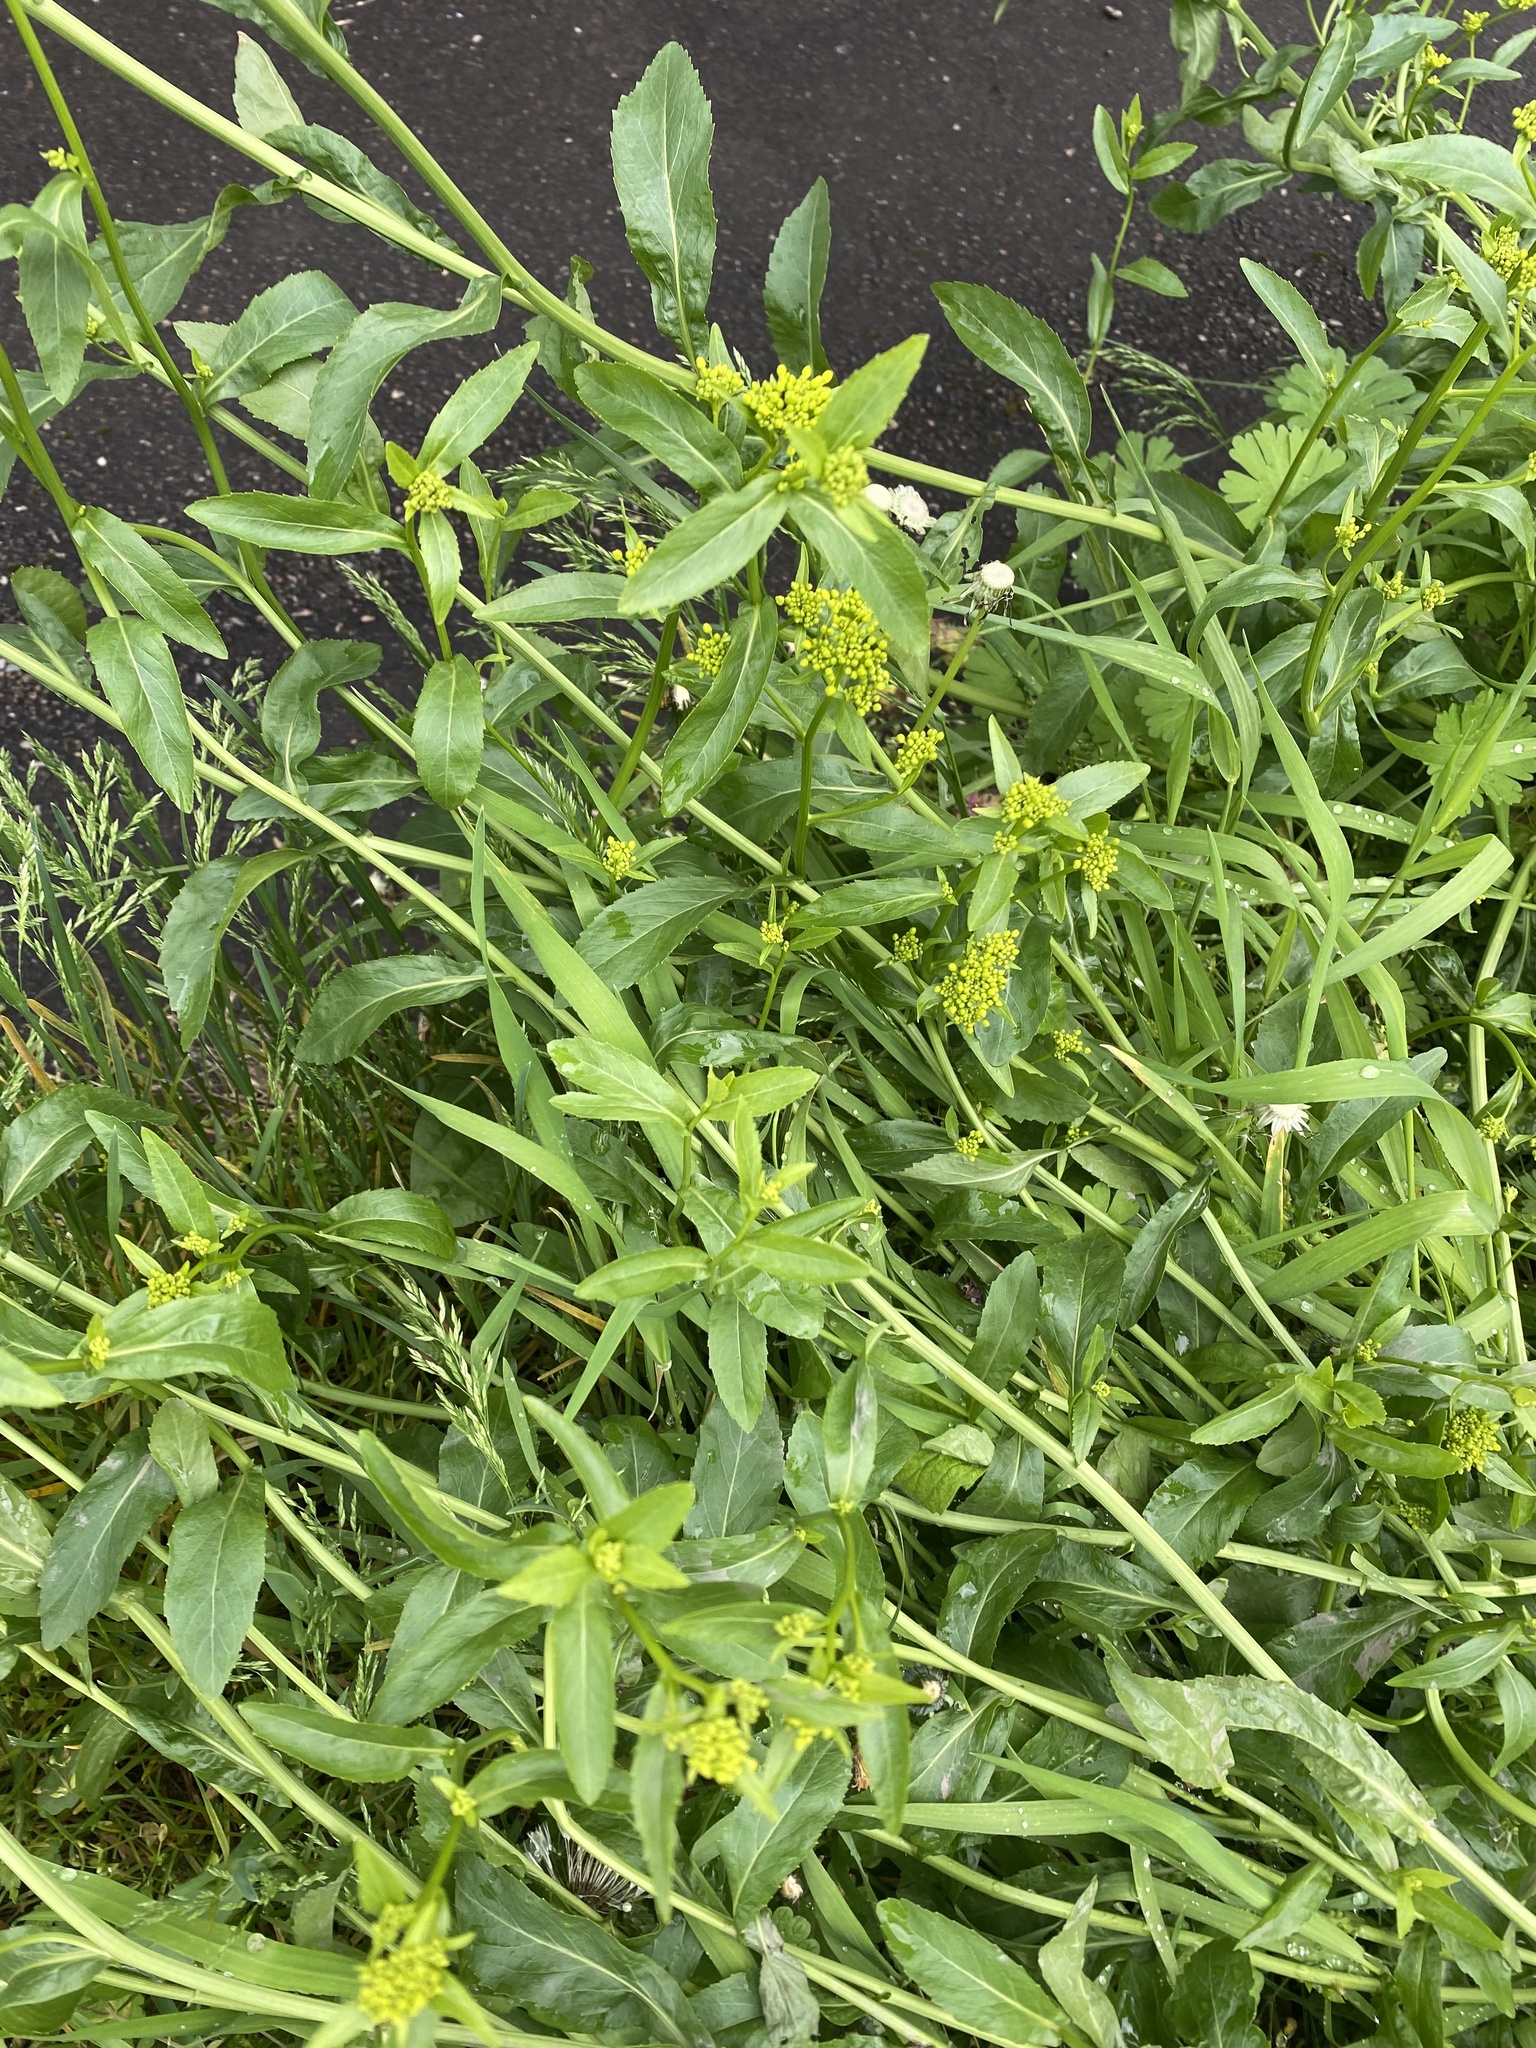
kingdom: Plantae
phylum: Tracheophyta
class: Magnoliopsida
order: Brassicales
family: Brassicaceae
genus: Rorippa
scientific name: Rorippa austriaca
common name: Austrian yellow-cress
